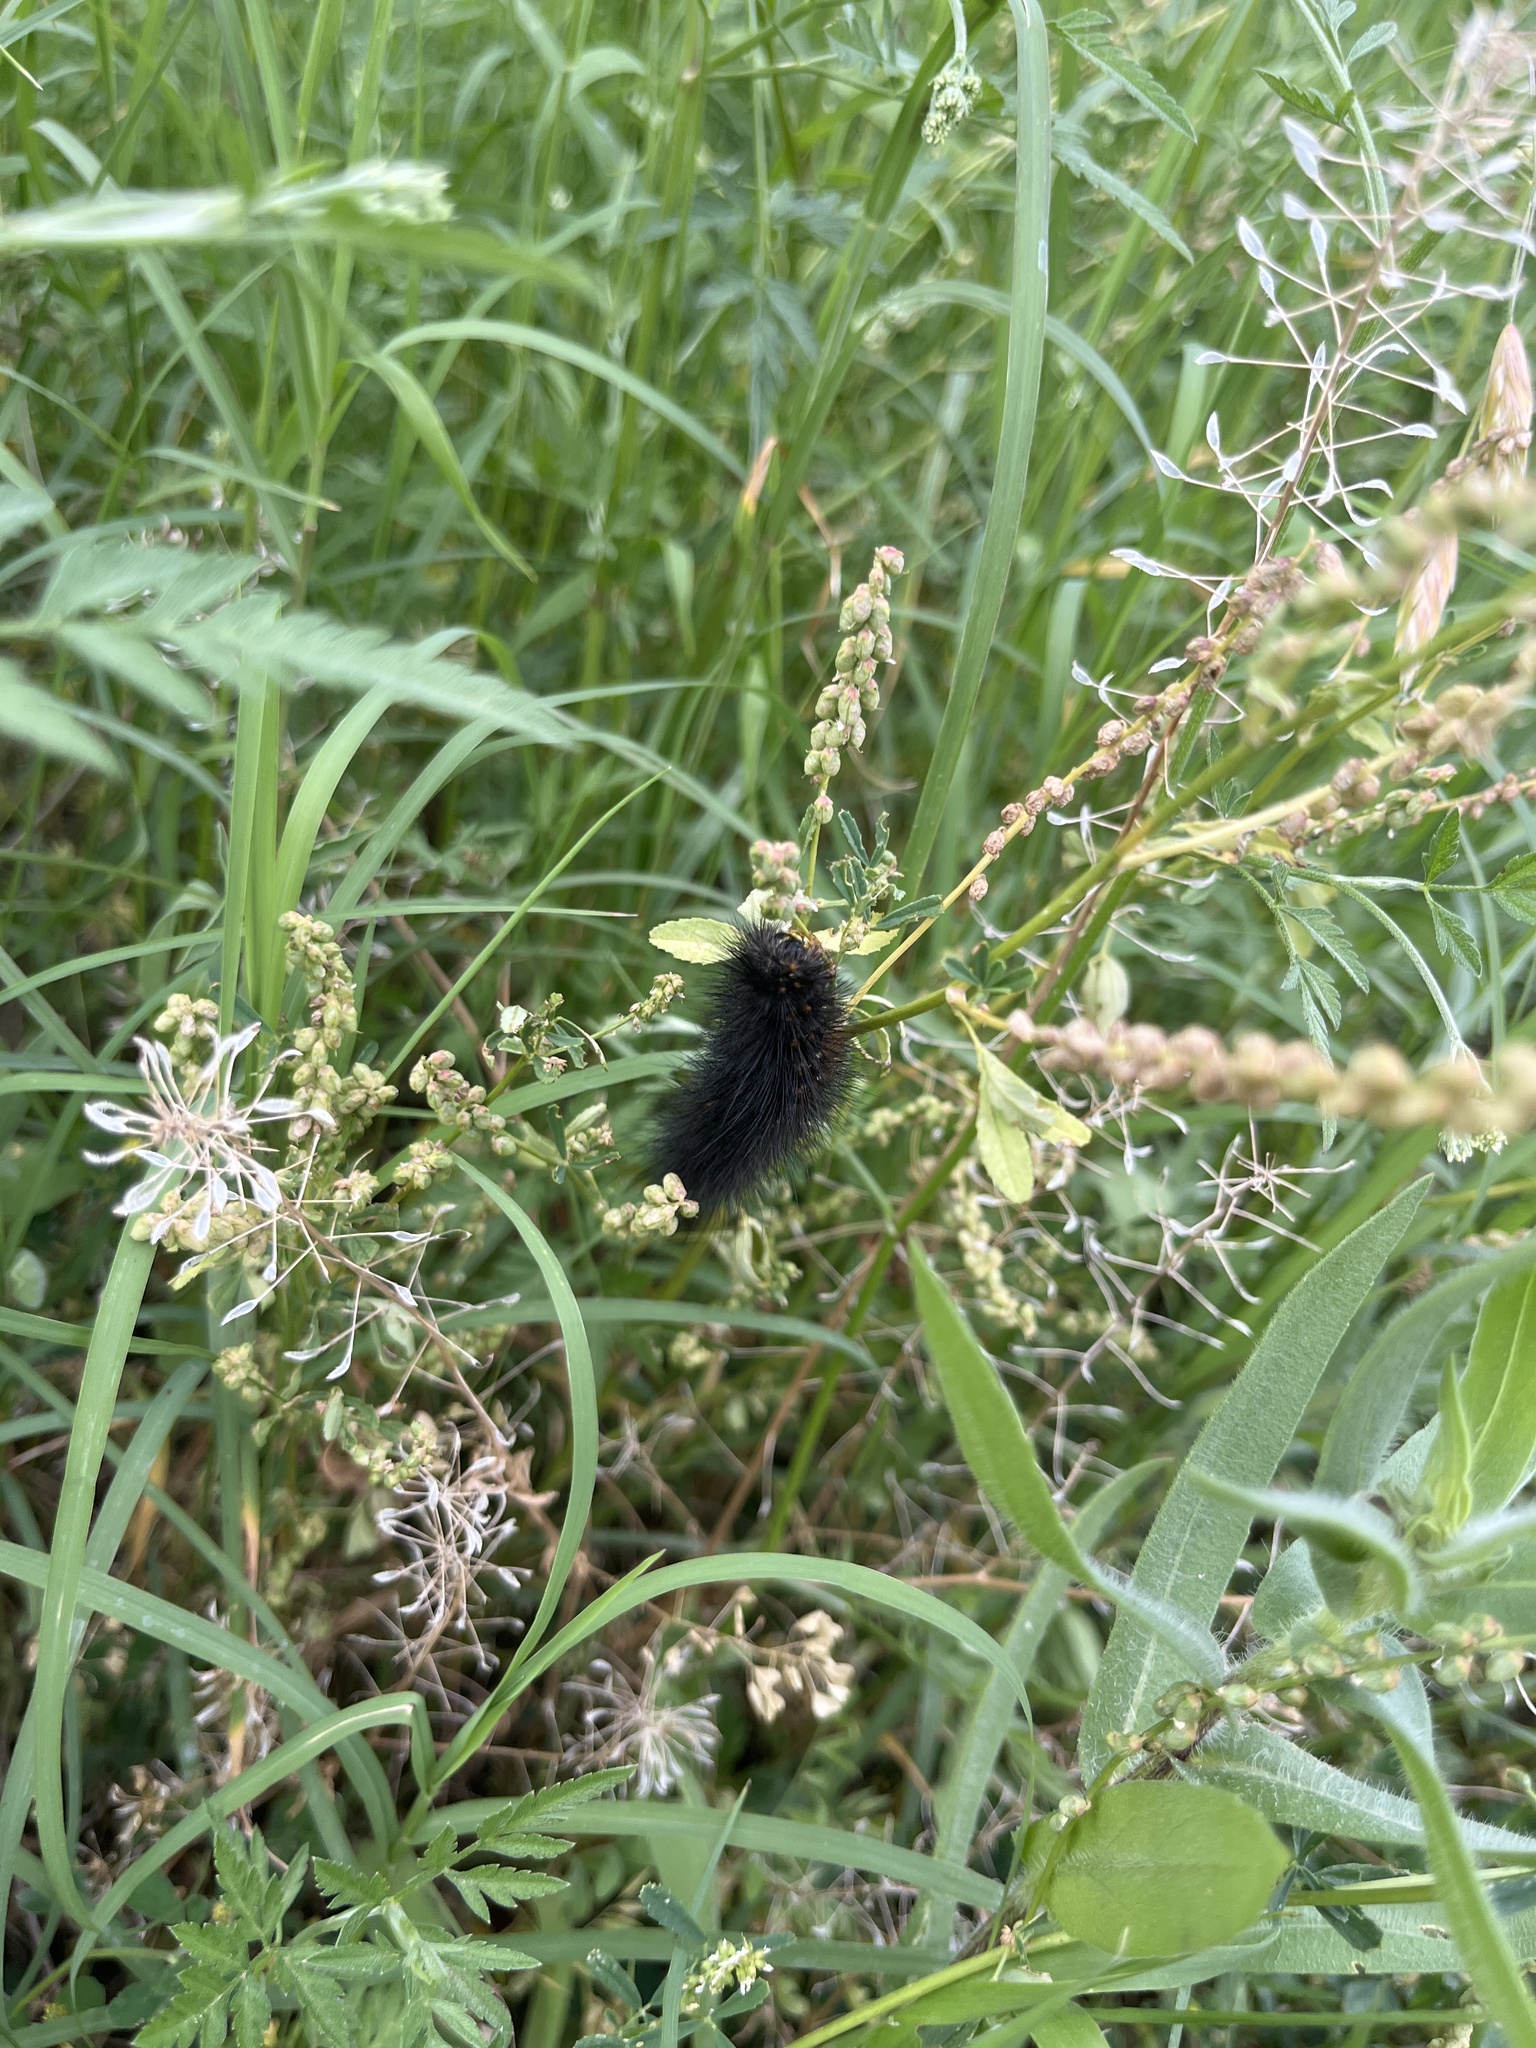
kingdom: Animalia
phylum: Arthropoda
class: Insecta
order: Lepidoptera
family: Erebidae
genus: Estigmene
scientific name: Estigmene acrea
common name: Salt marsh moth
